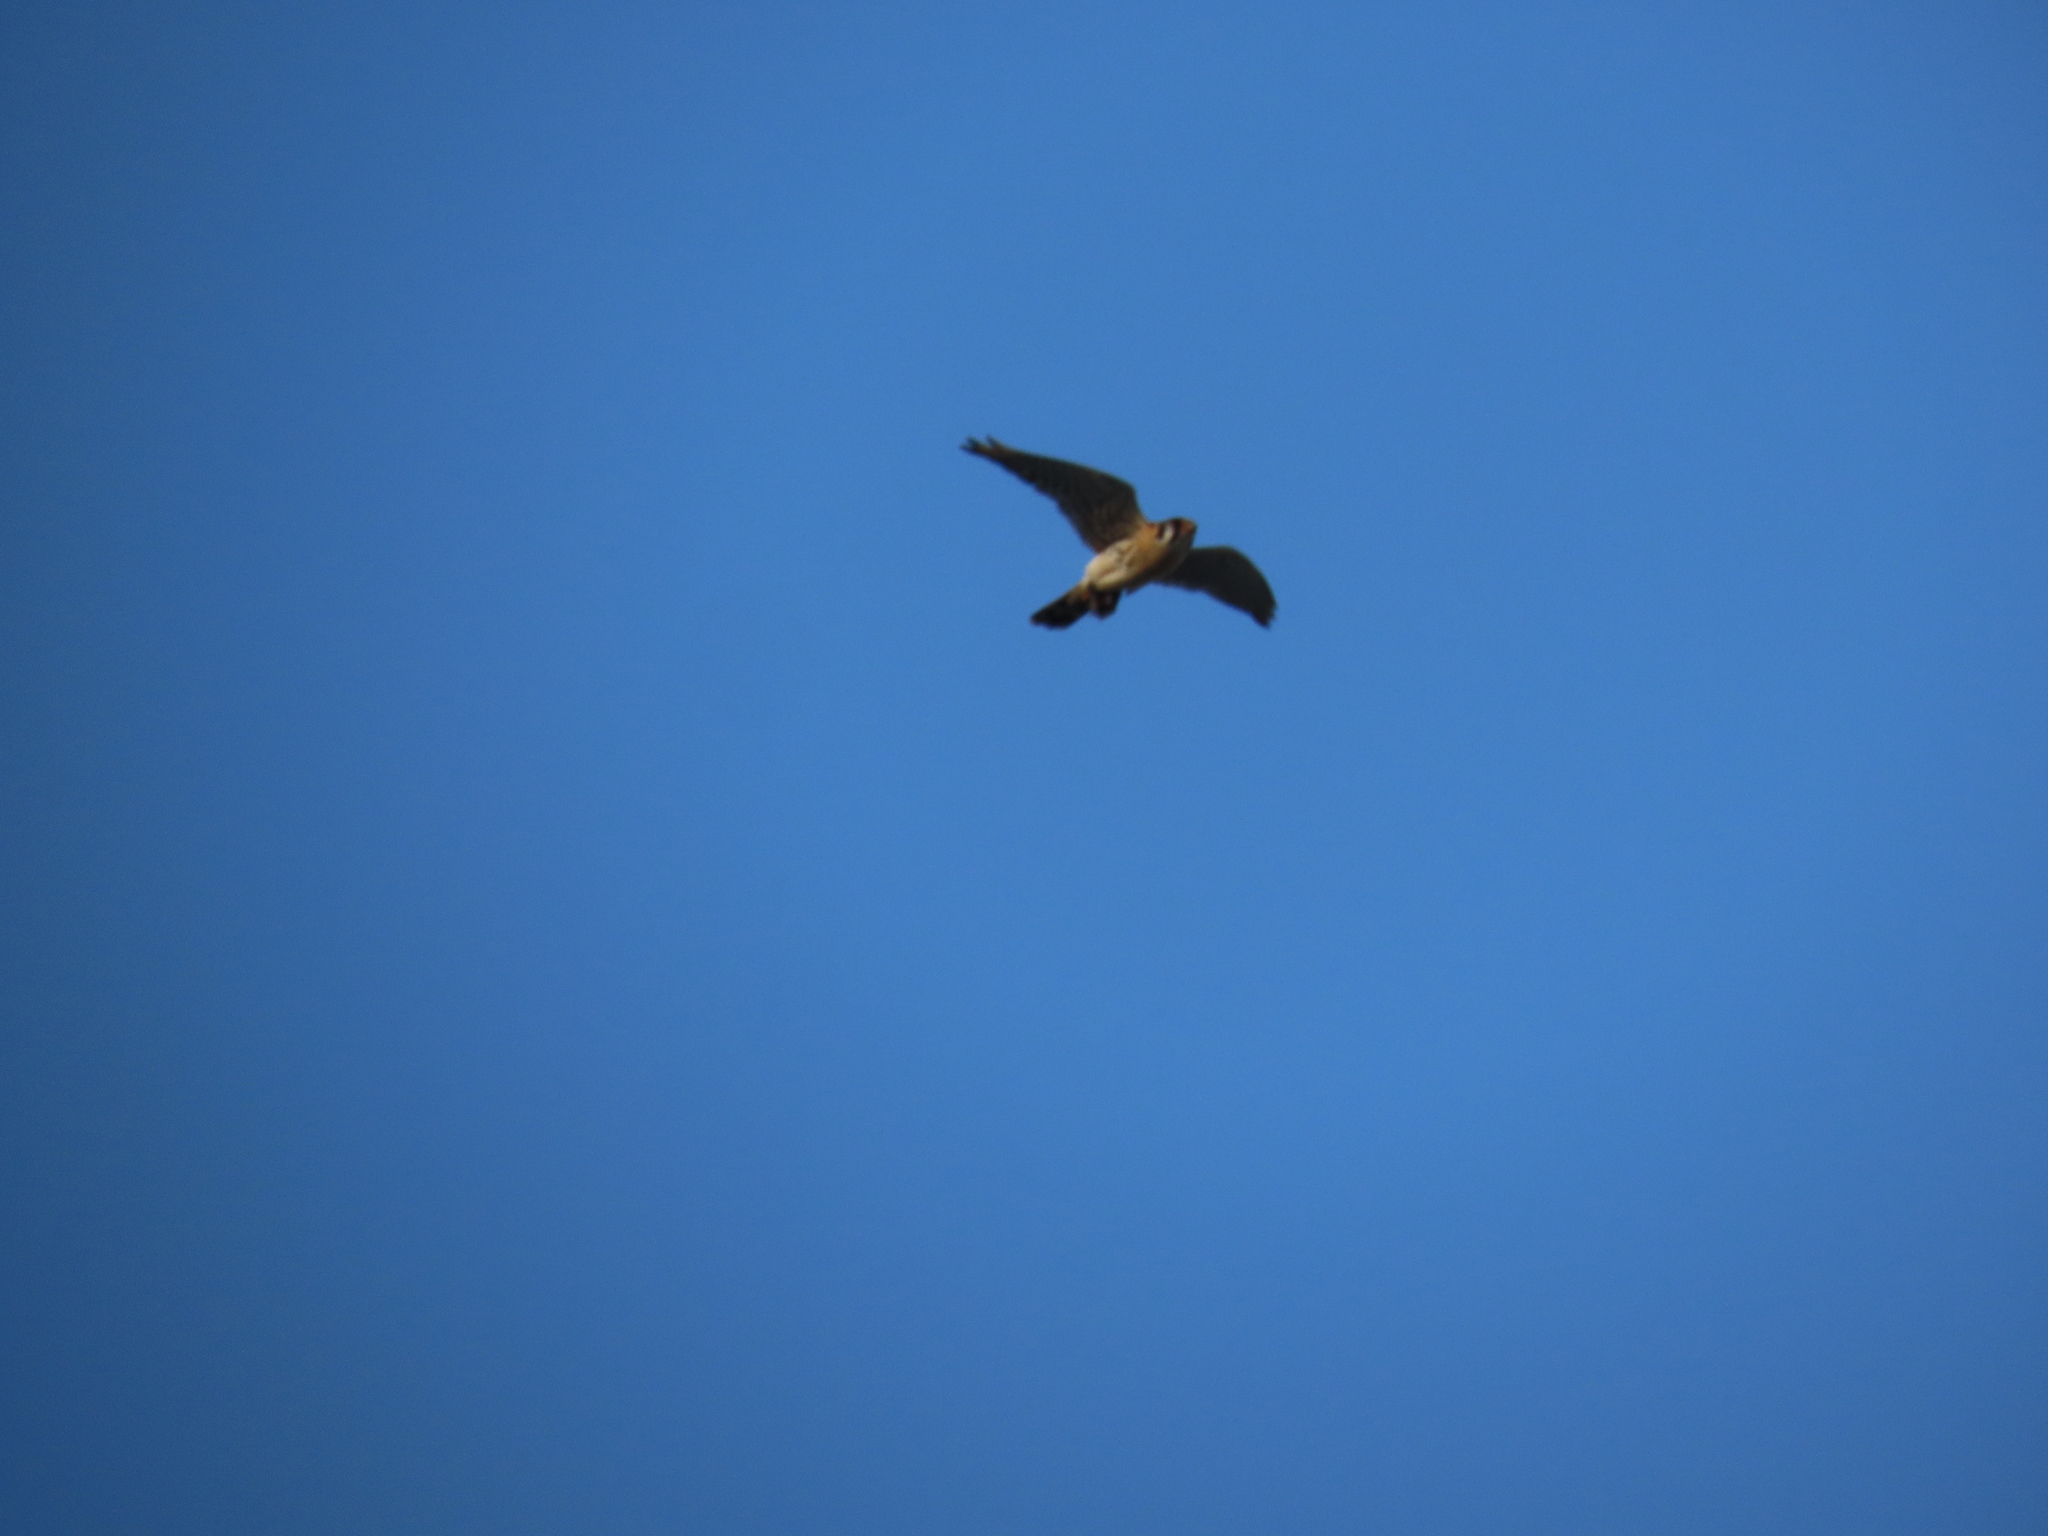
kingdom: Animalia
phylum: Chordata
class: Aves
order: Falconiformes
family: Falconidae
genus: Falco
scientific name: Falco sparverius
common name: American kestrel
